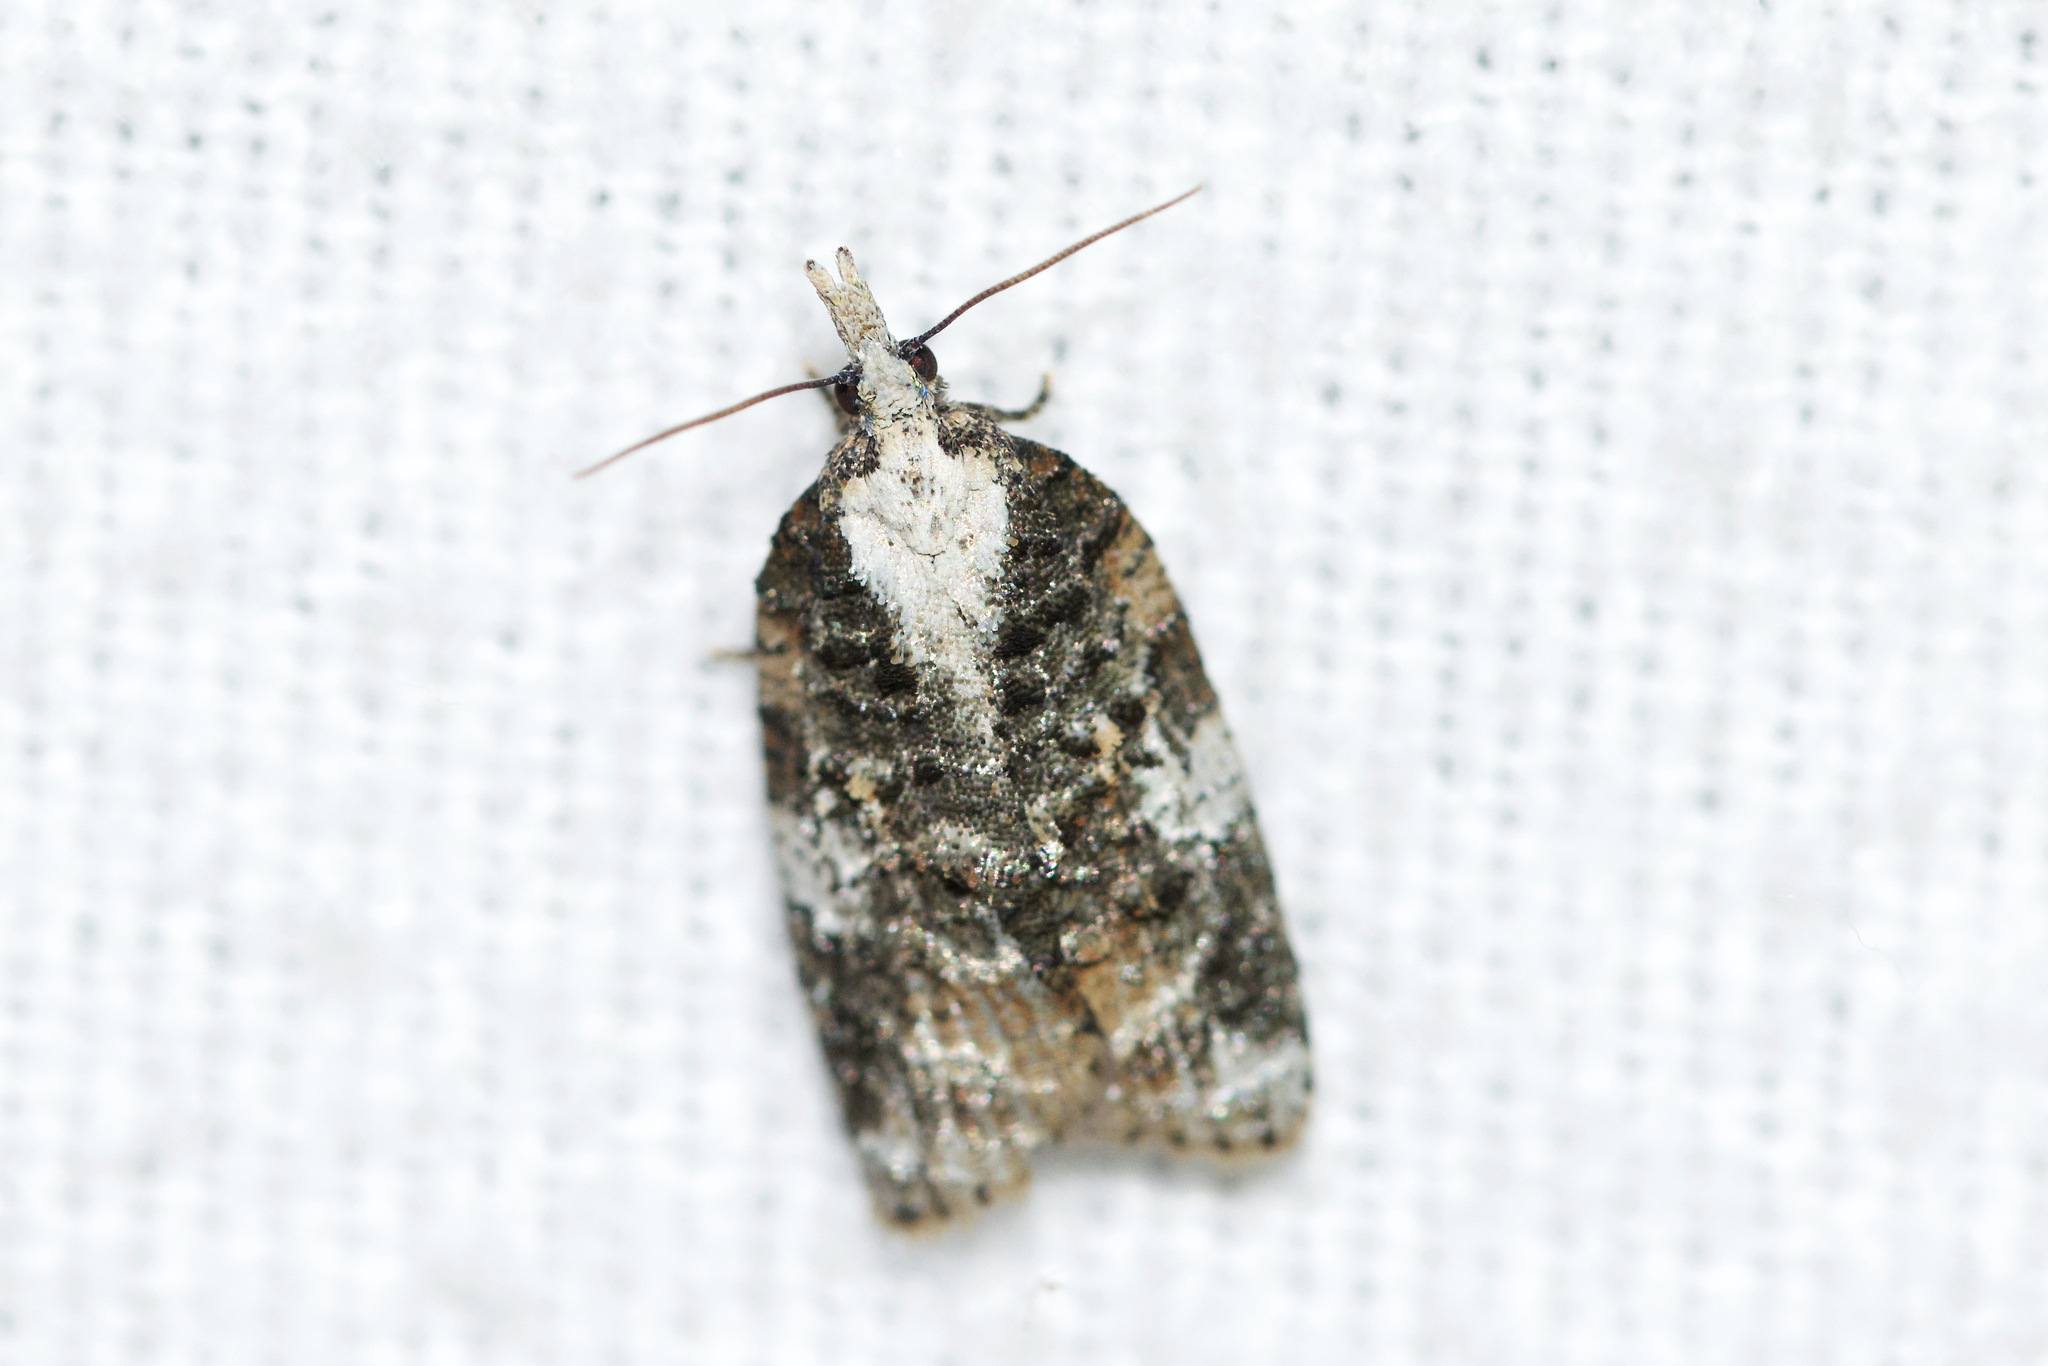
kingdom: Animalia
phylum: Arthropoda
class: Insecta
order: Lepidoptera
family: Tortricidae
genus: Platynota
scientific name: Platynota exasperatana
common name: Exasperating platynota moth
